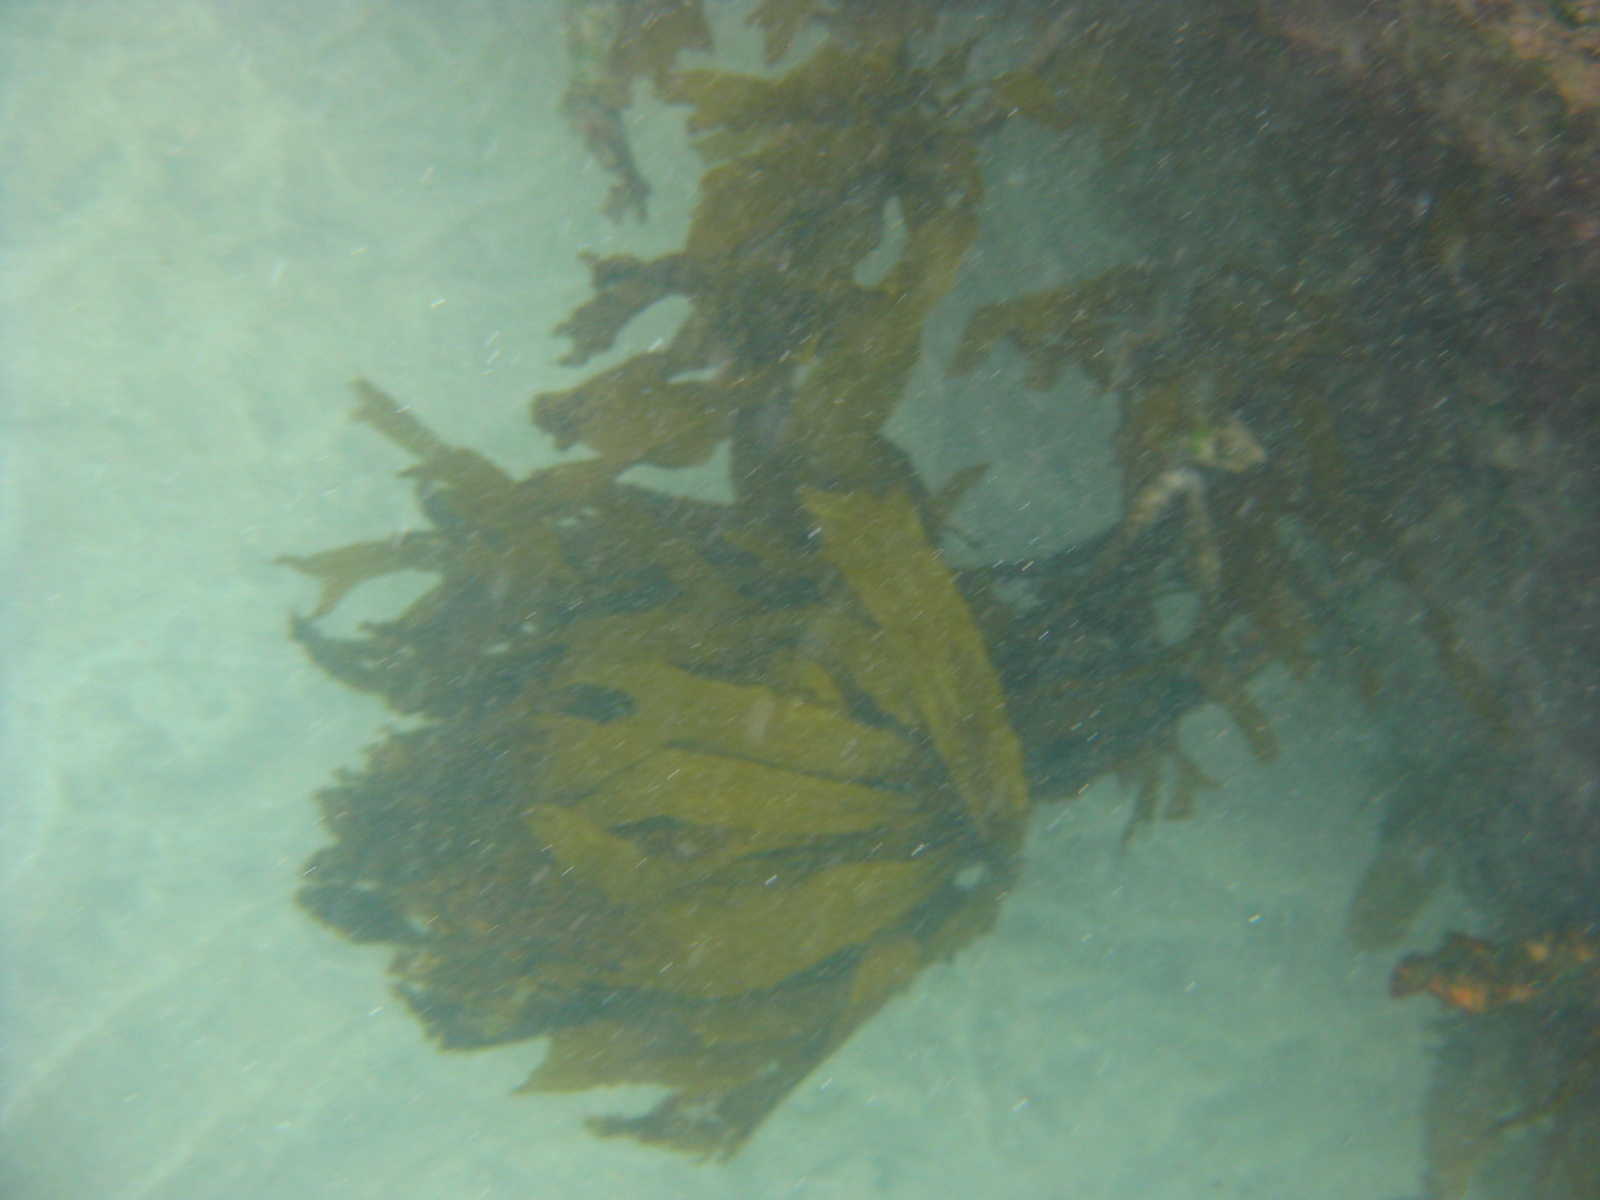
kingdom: Chromista
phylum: Ochrophyta
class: Phaeophyceae
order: Laminariales
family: Lessoniaceae
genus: Ecklonia
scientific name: Ecklonia radiata
